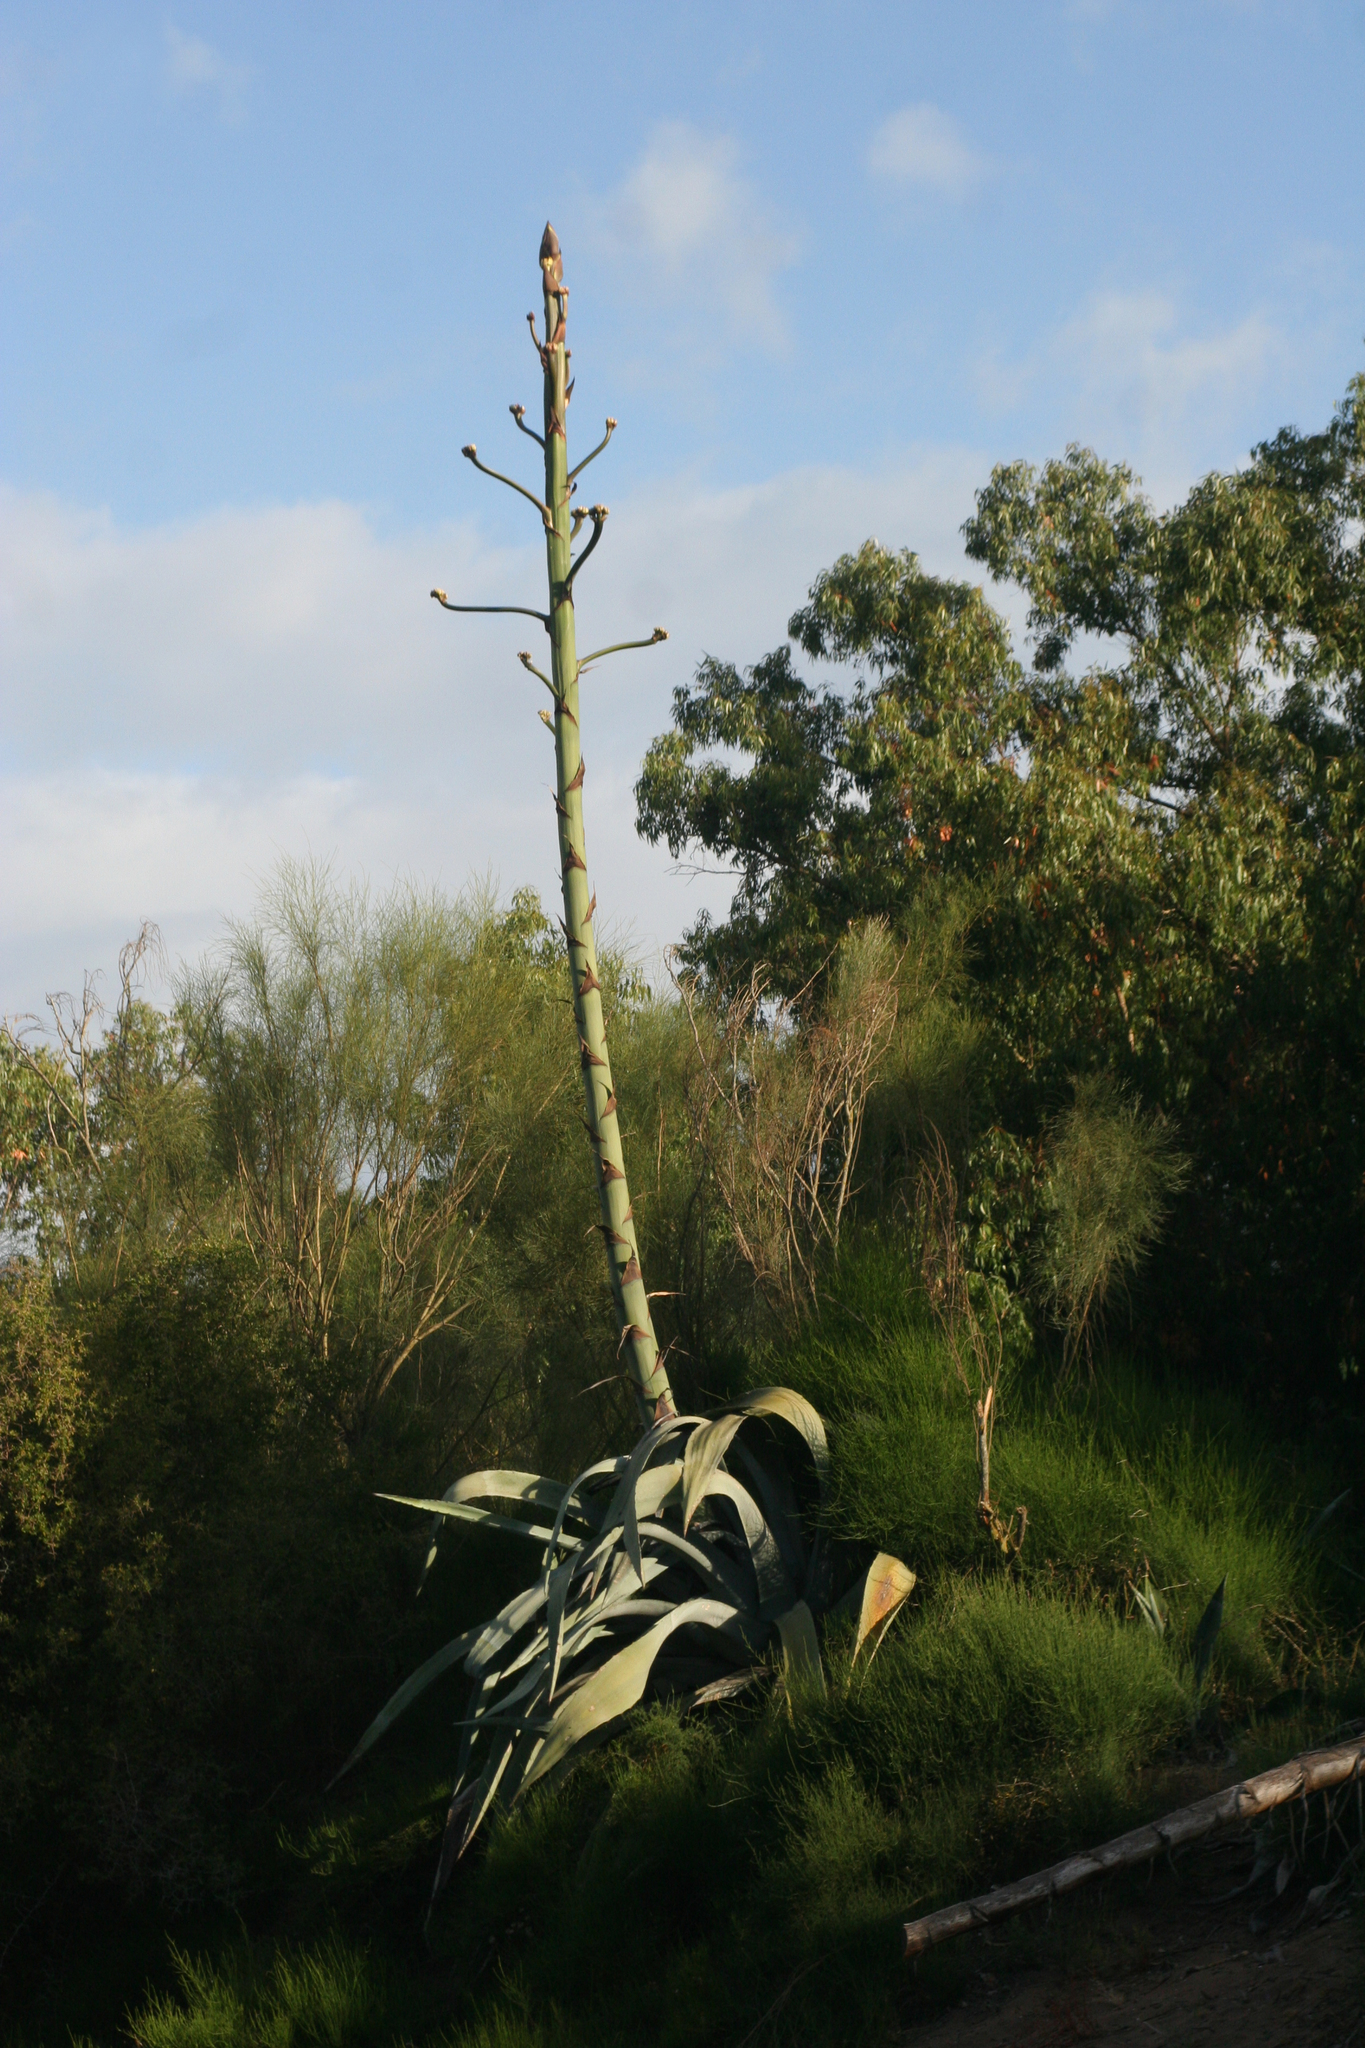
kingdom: Plantae
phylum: Tracheophyta
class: Liliopsida
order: Asparagales
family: Asparagaceae
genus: Agave
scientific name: Agave americana
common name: Centuryplant
